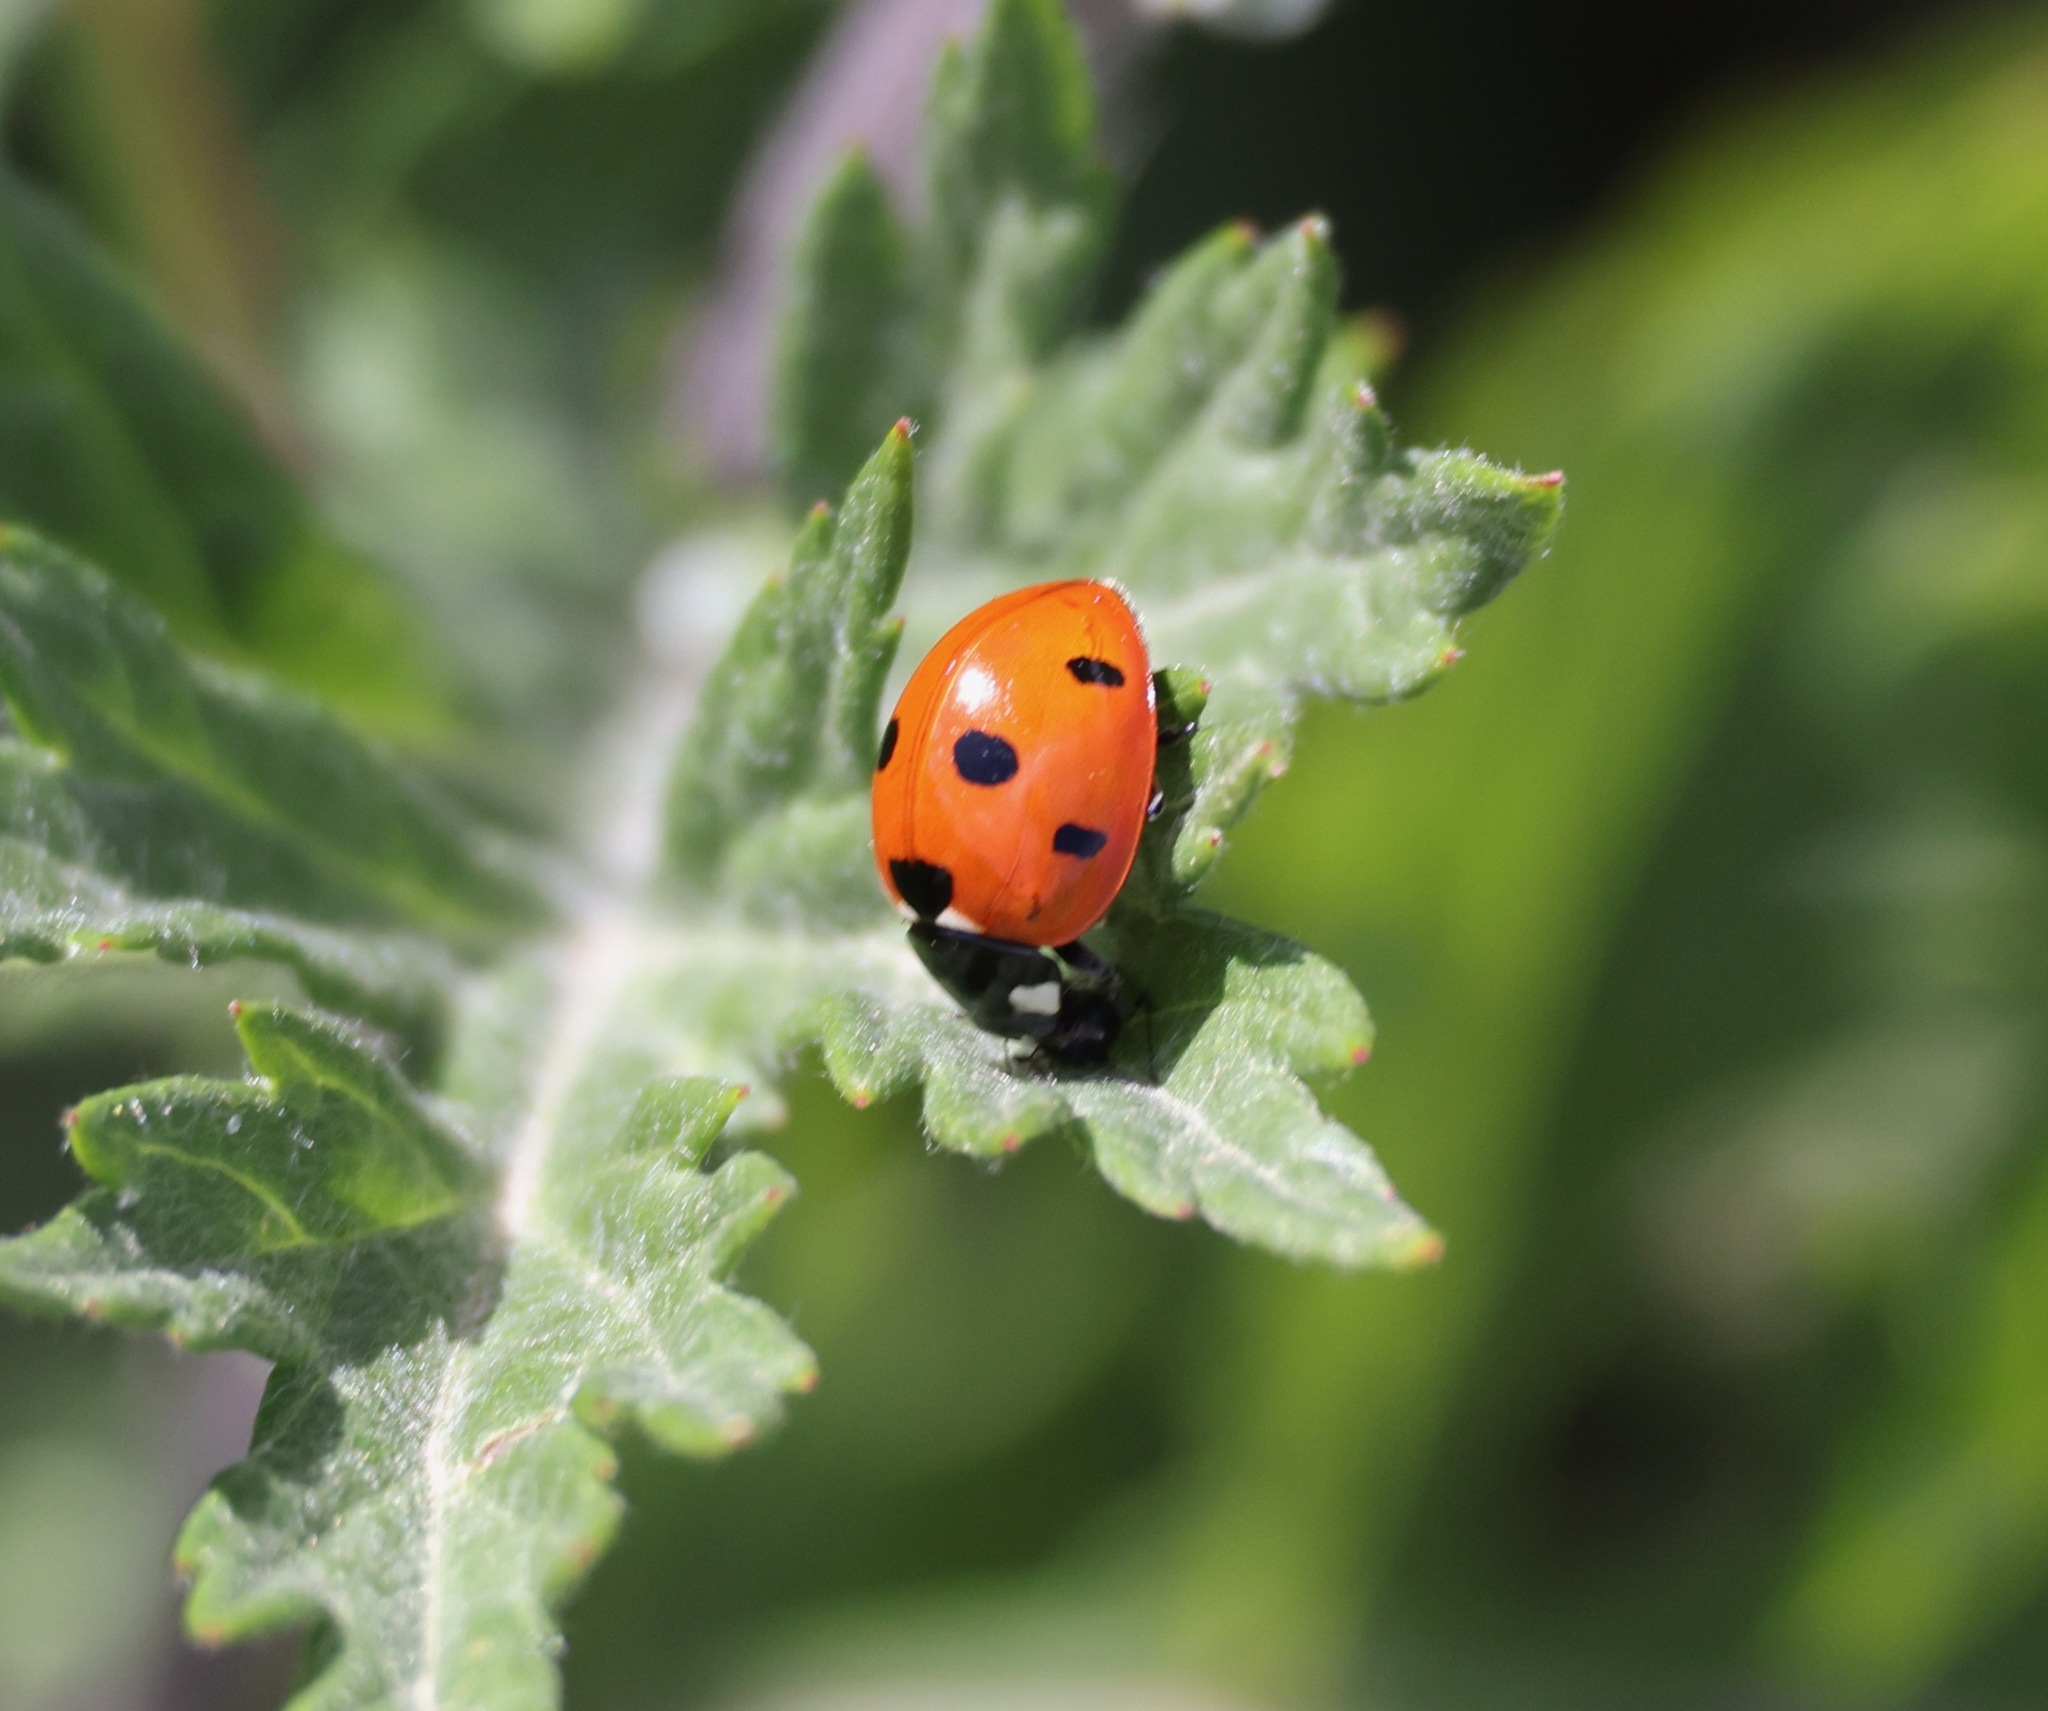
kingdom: Animalia
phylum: Arthropoda
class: Insecta
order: Coleoptera
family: Coccinellidae
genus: Coccinella
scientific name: Coccinella septempunctata
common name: Sevenspotted lady beetle
